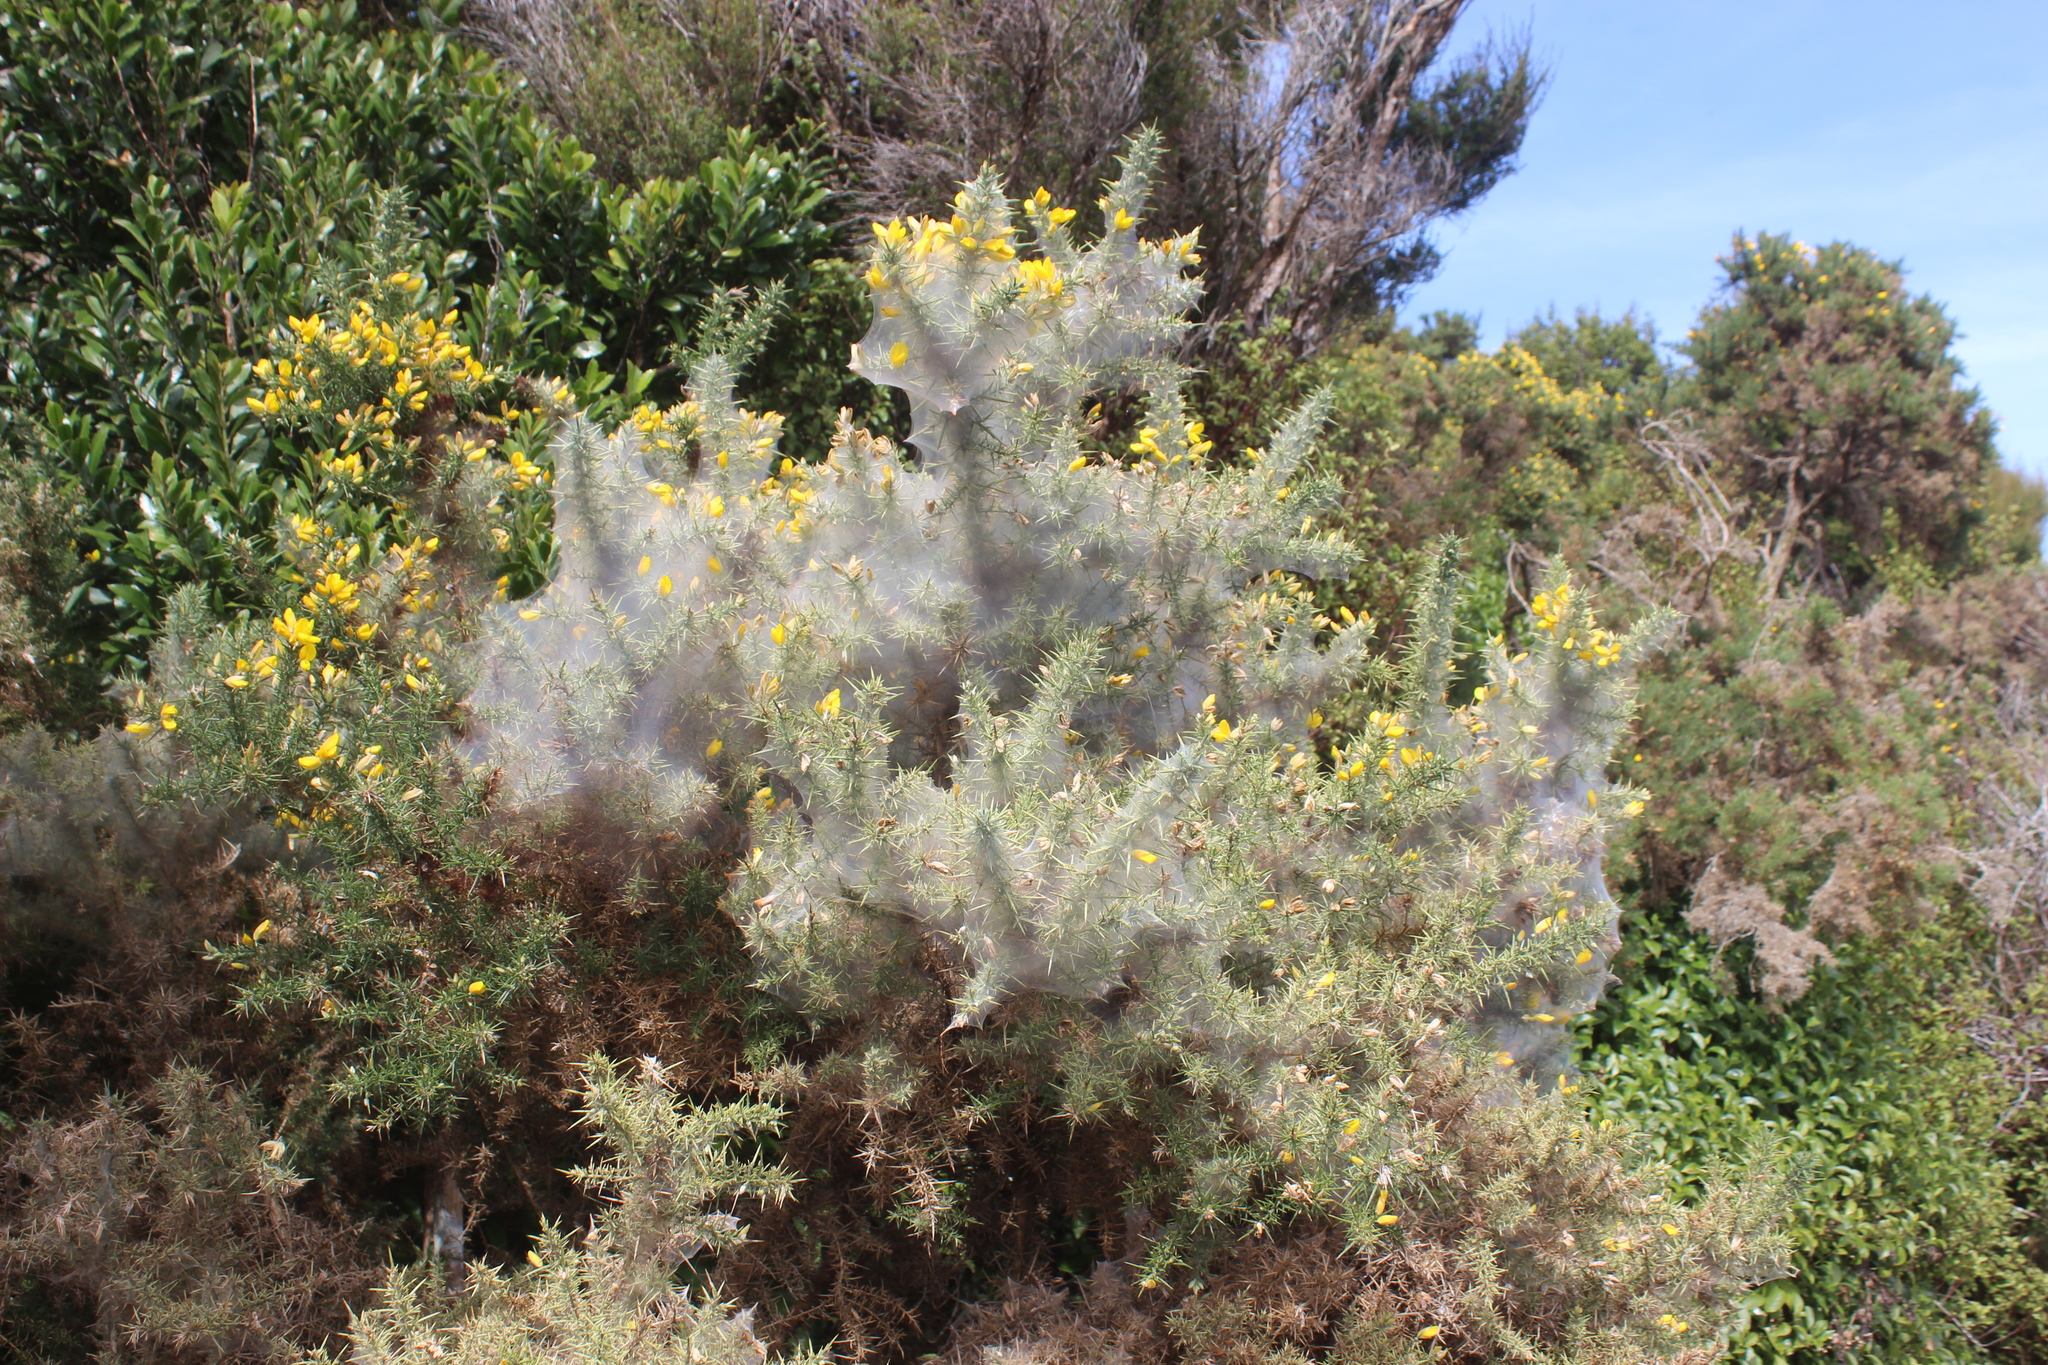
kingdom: Animalia
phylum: Arthropoda
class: Arachnida
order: Trombidiformes
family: Tetranychidae
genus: Tetranychus
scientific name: Tetranychus lintearius
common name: Gorse spider mite
